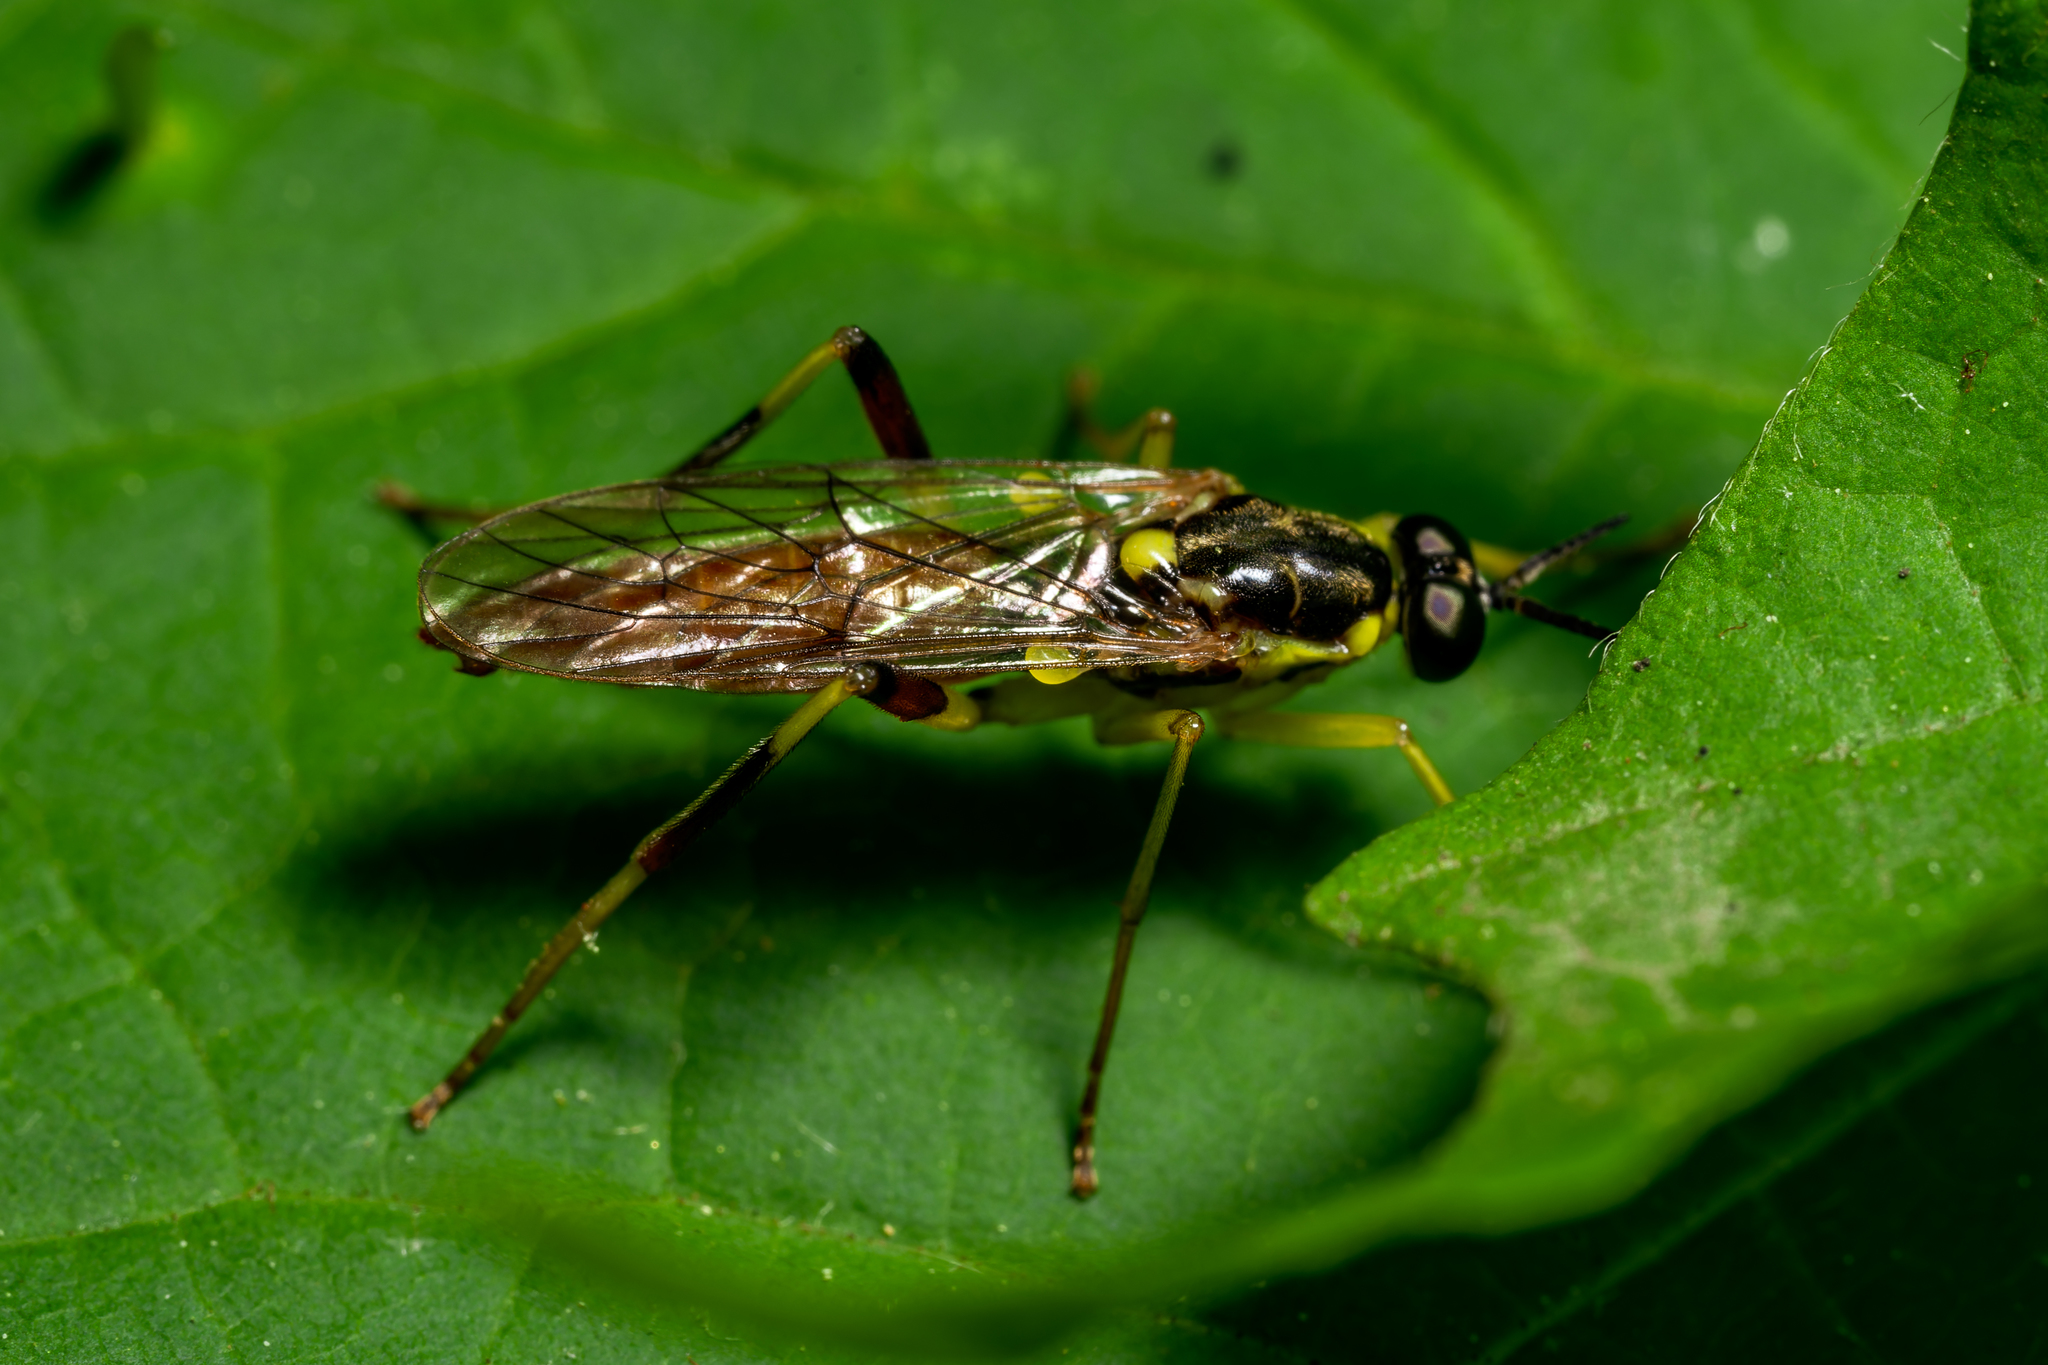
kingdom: Animalia
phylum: Arthropoda
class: Insecta
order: Diptera
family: Xylomyidae
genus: Xylomya
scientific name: Xylomya simillima
